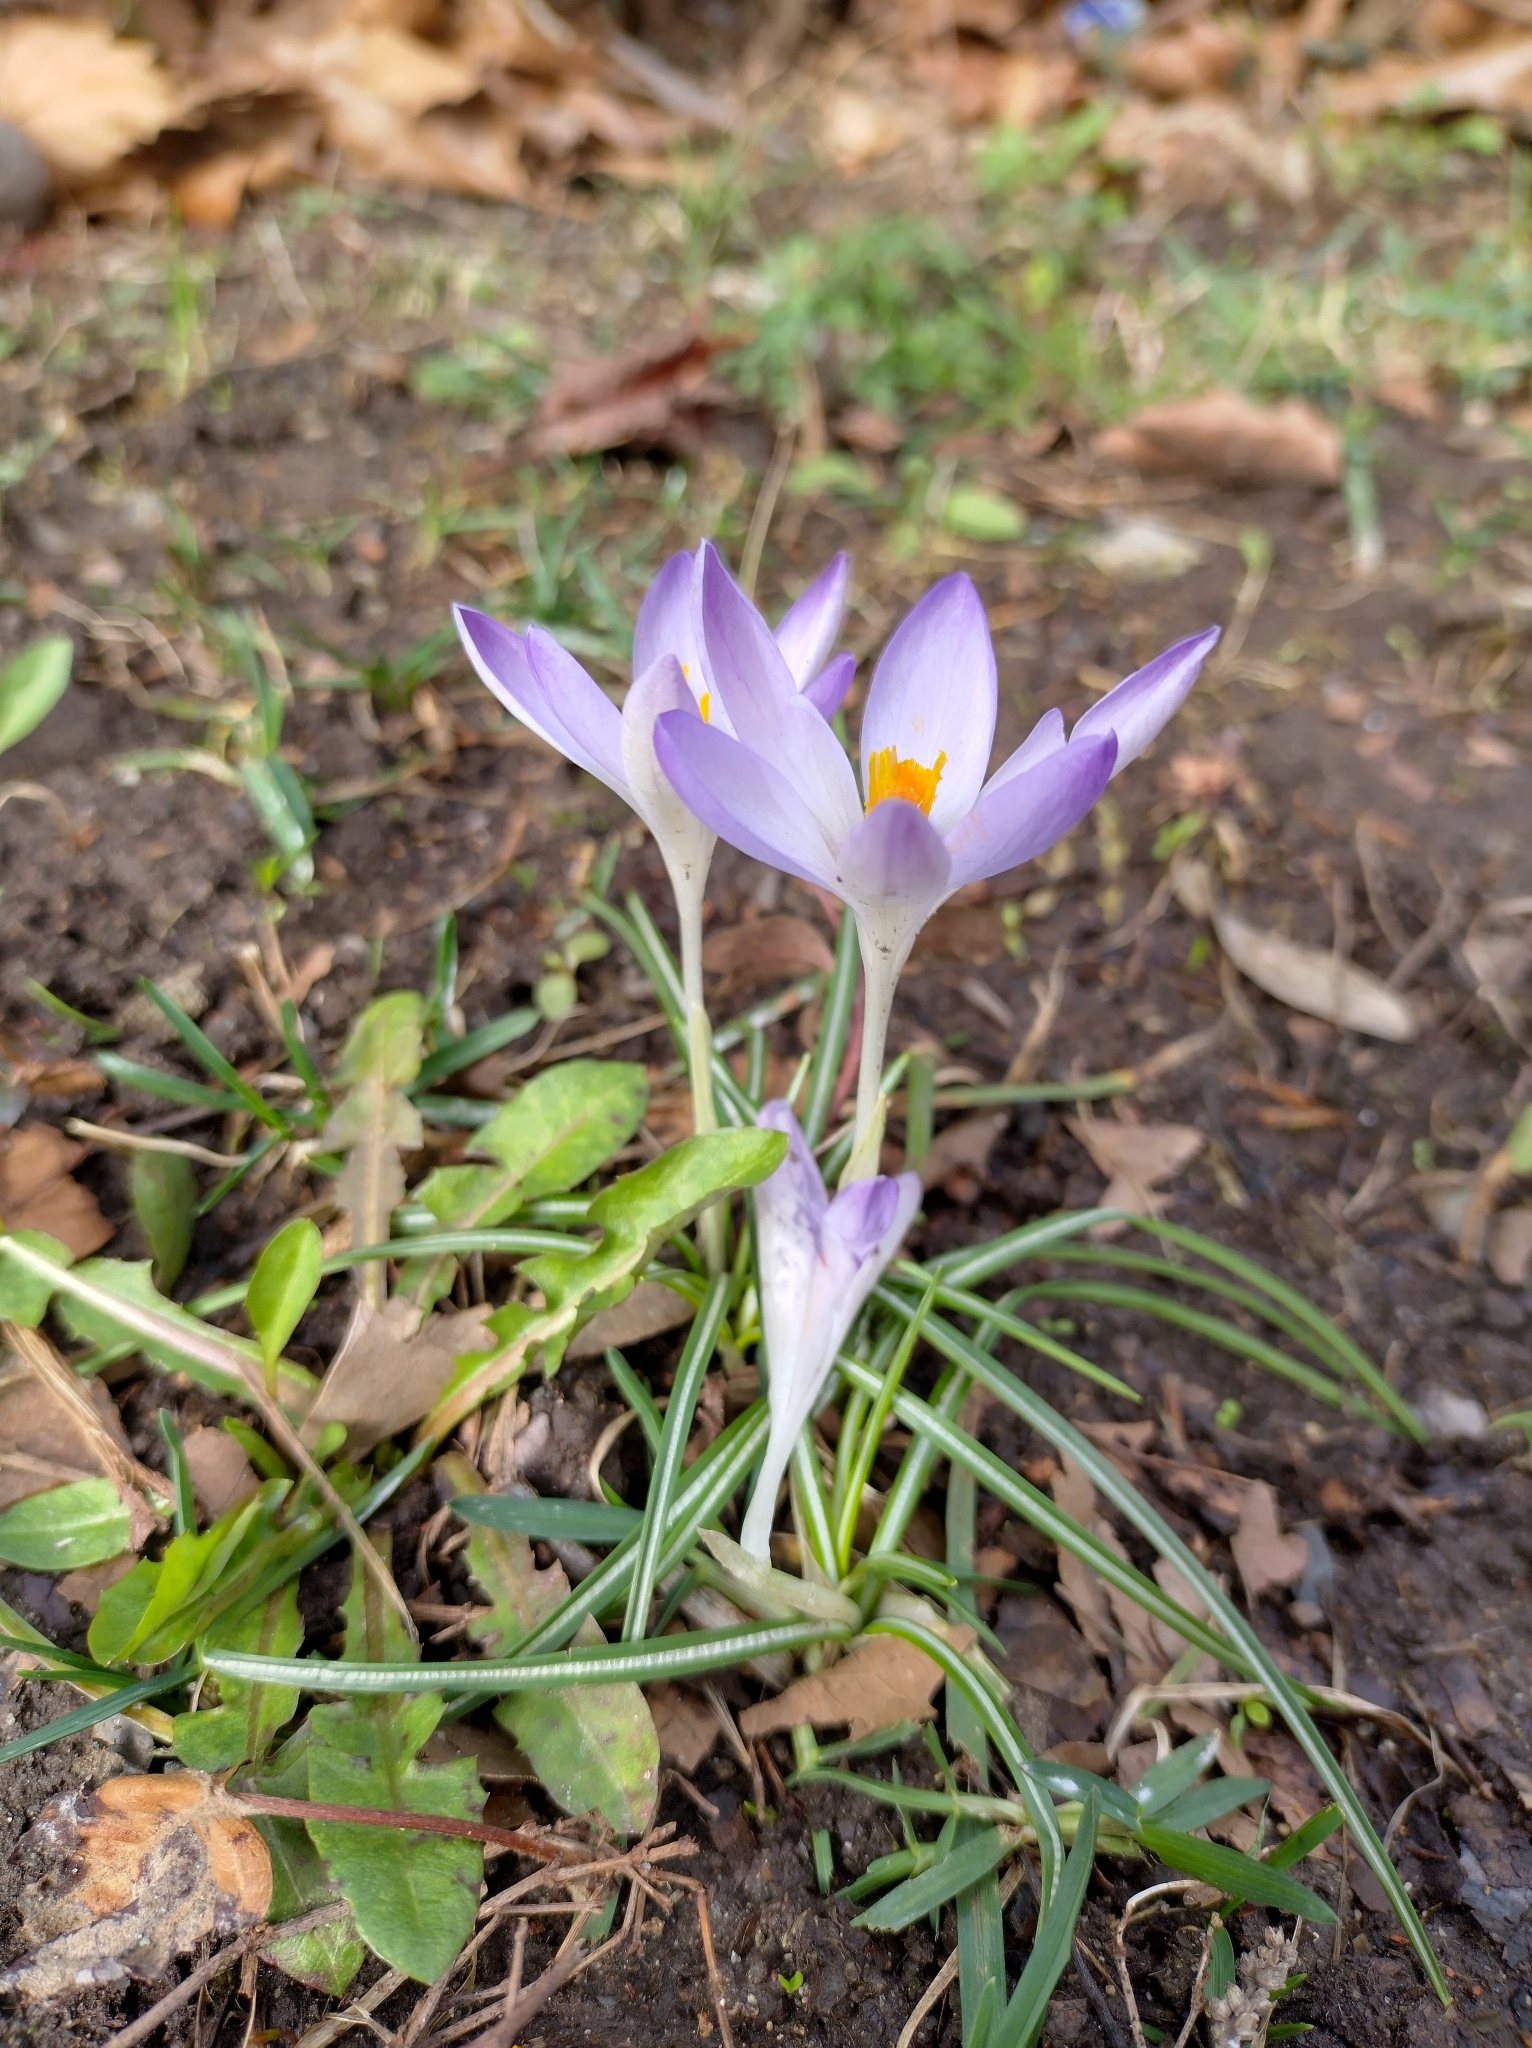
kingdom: Plantae
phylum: Tracheophyta
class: Liliopsida
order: Asparagales
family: Iridaceae
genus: Crocus
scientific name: Crocus tommasinianus
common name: Early crocus
